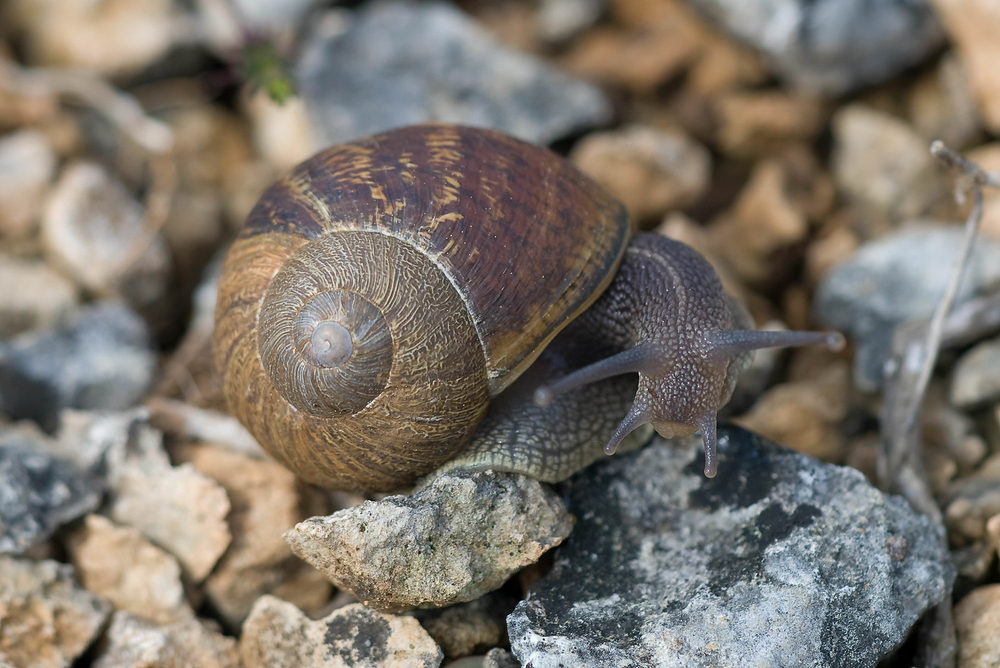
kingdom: Animalia
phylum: Mollusca
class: Gastropoda
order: Stylommatophora
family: Helicidae
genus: Cornu
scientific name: Cornu aspersum
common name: Brown garden snail
